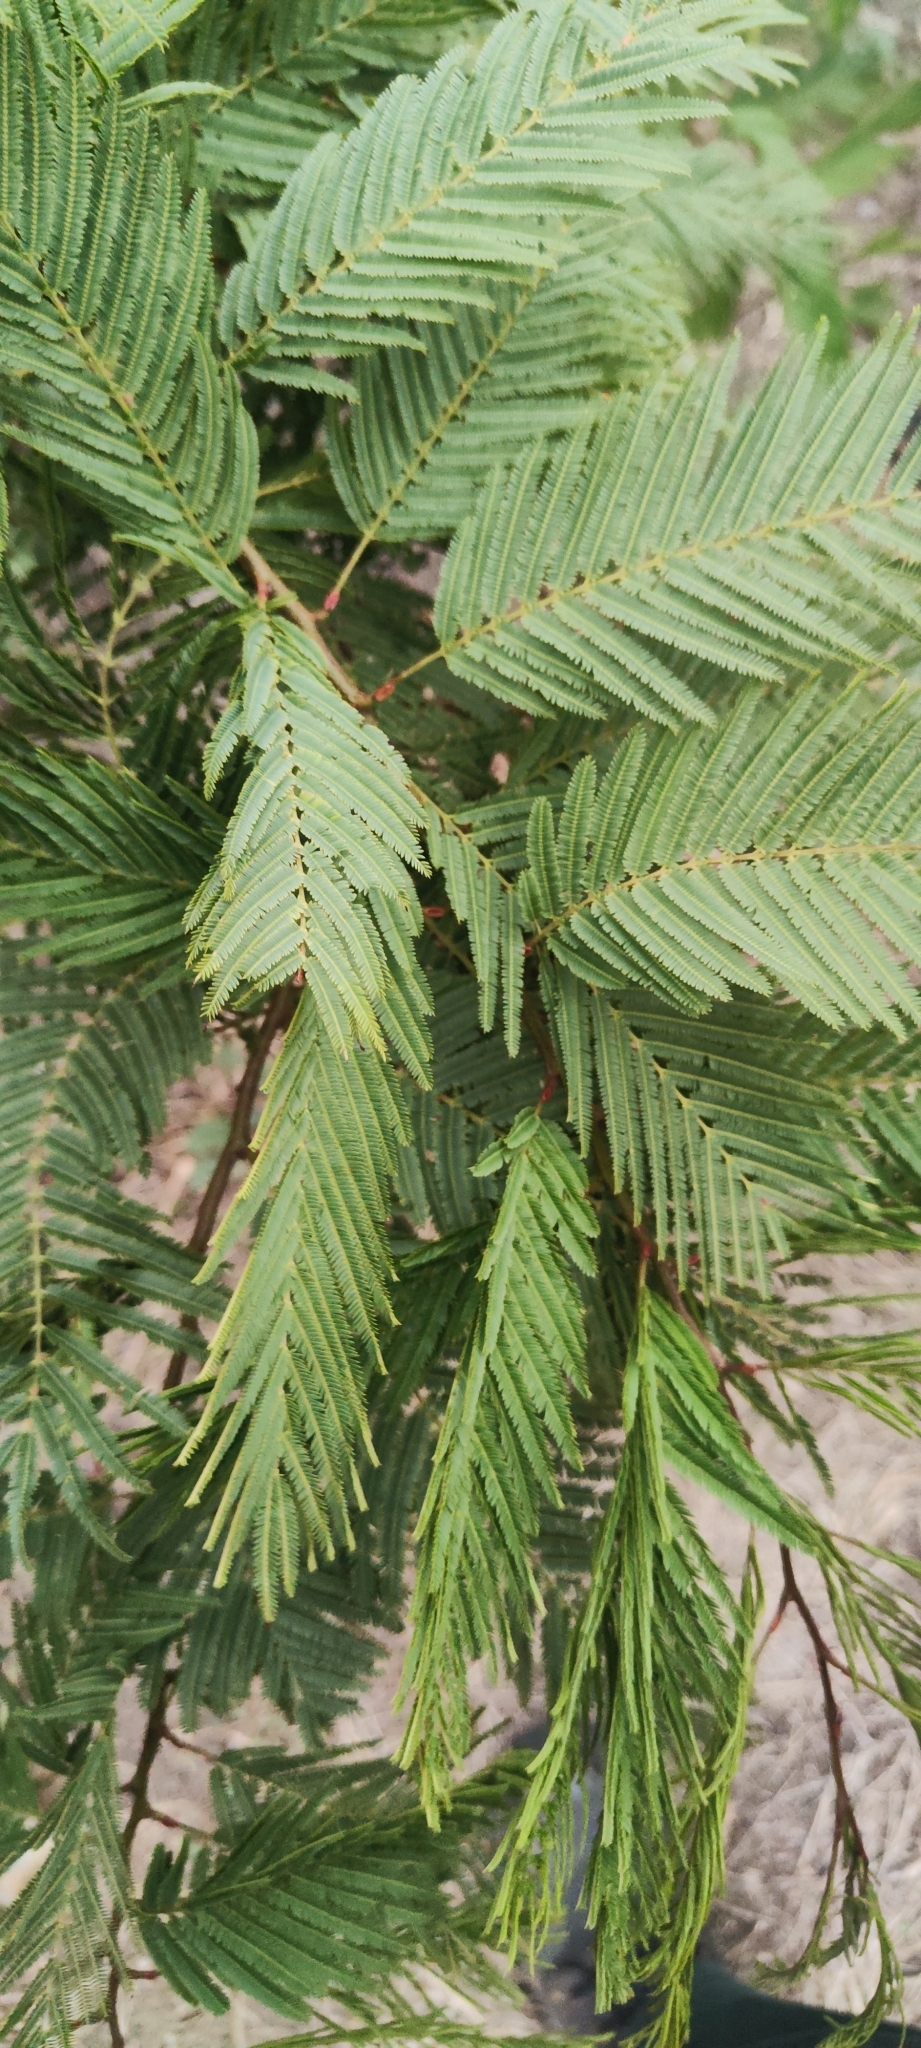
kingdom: Plantae
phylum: Tracheophyta
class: Magnoliopsida
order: Fabales
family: Fabaceae
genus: Anadenanthera
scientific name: Anadenanthera colubrina
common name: Curupay
